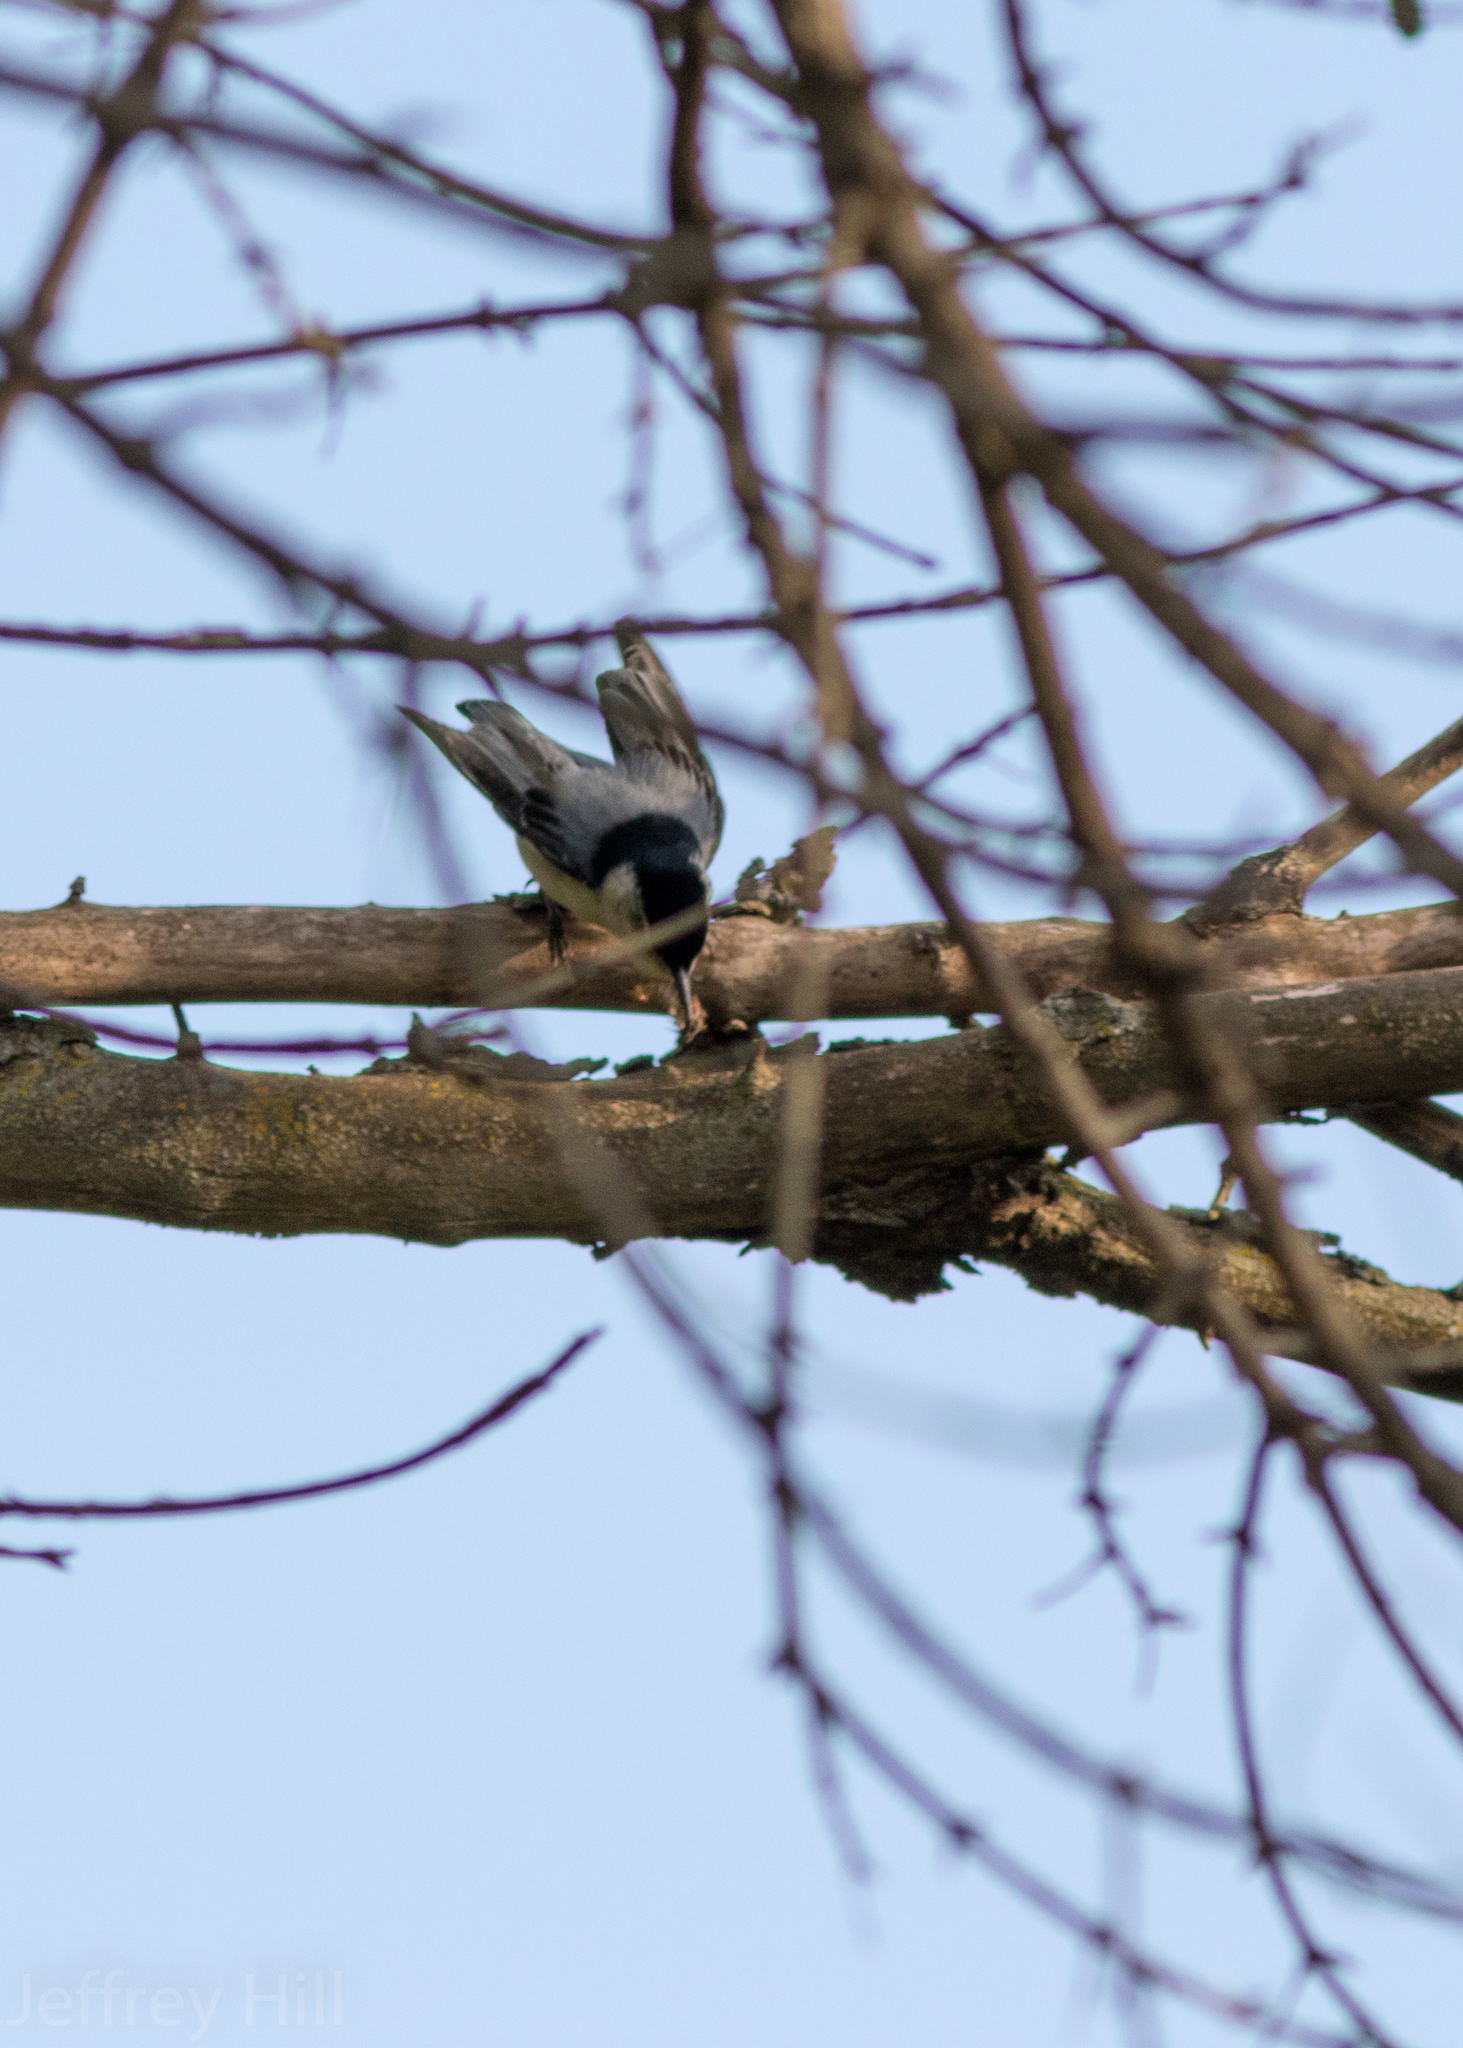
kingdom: Animalia
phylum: Chordata
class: Aves
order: Passeriformes
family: Sittidae
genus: Sitta
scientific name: Sitta carolinensis
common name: White-breasted nuthatch
